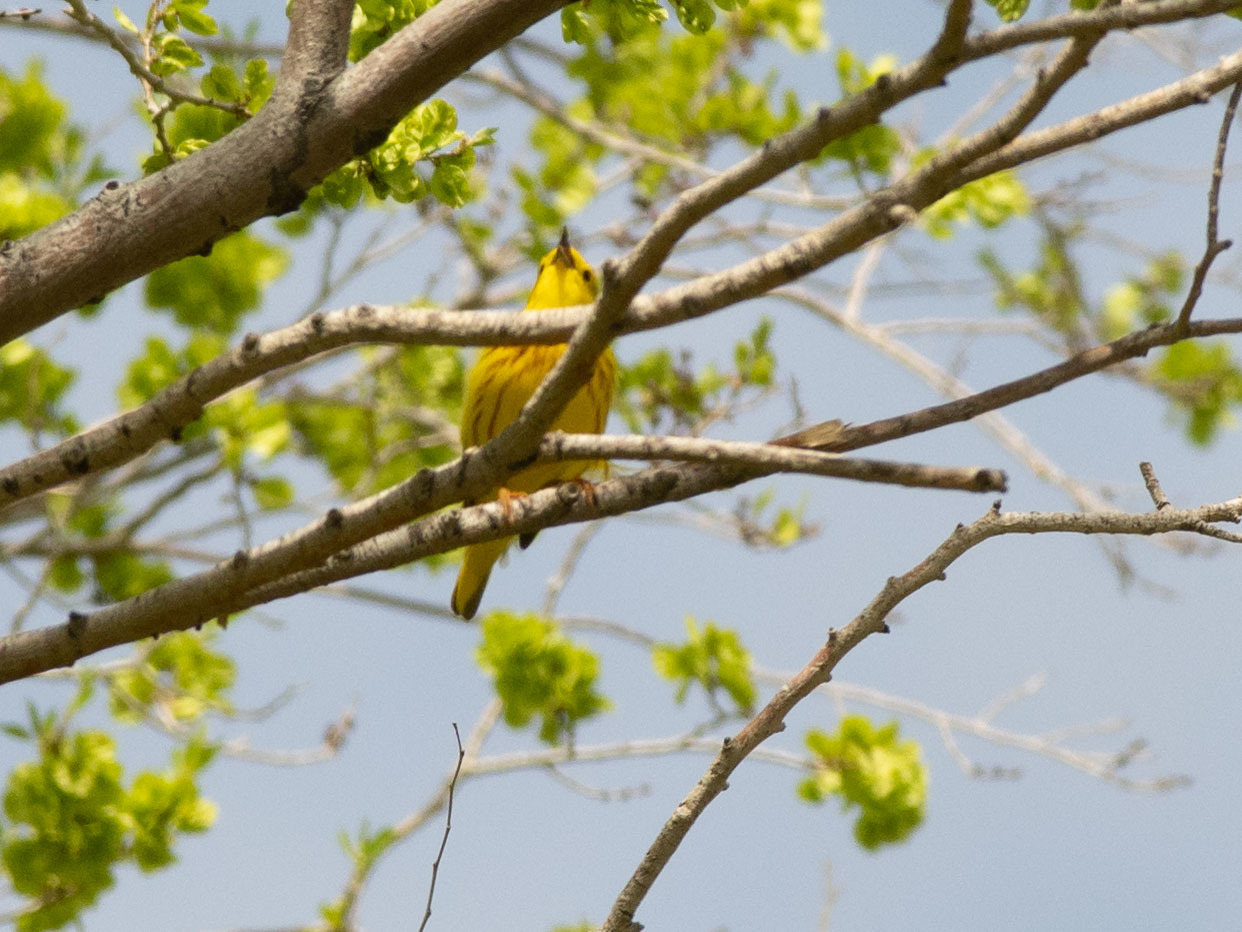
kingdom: Animalia
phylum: Chordata
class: Aves
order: Passeriformes
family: Parulidae
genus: Setophaga
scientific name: Setophaga petechia
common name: Yellow warbler
